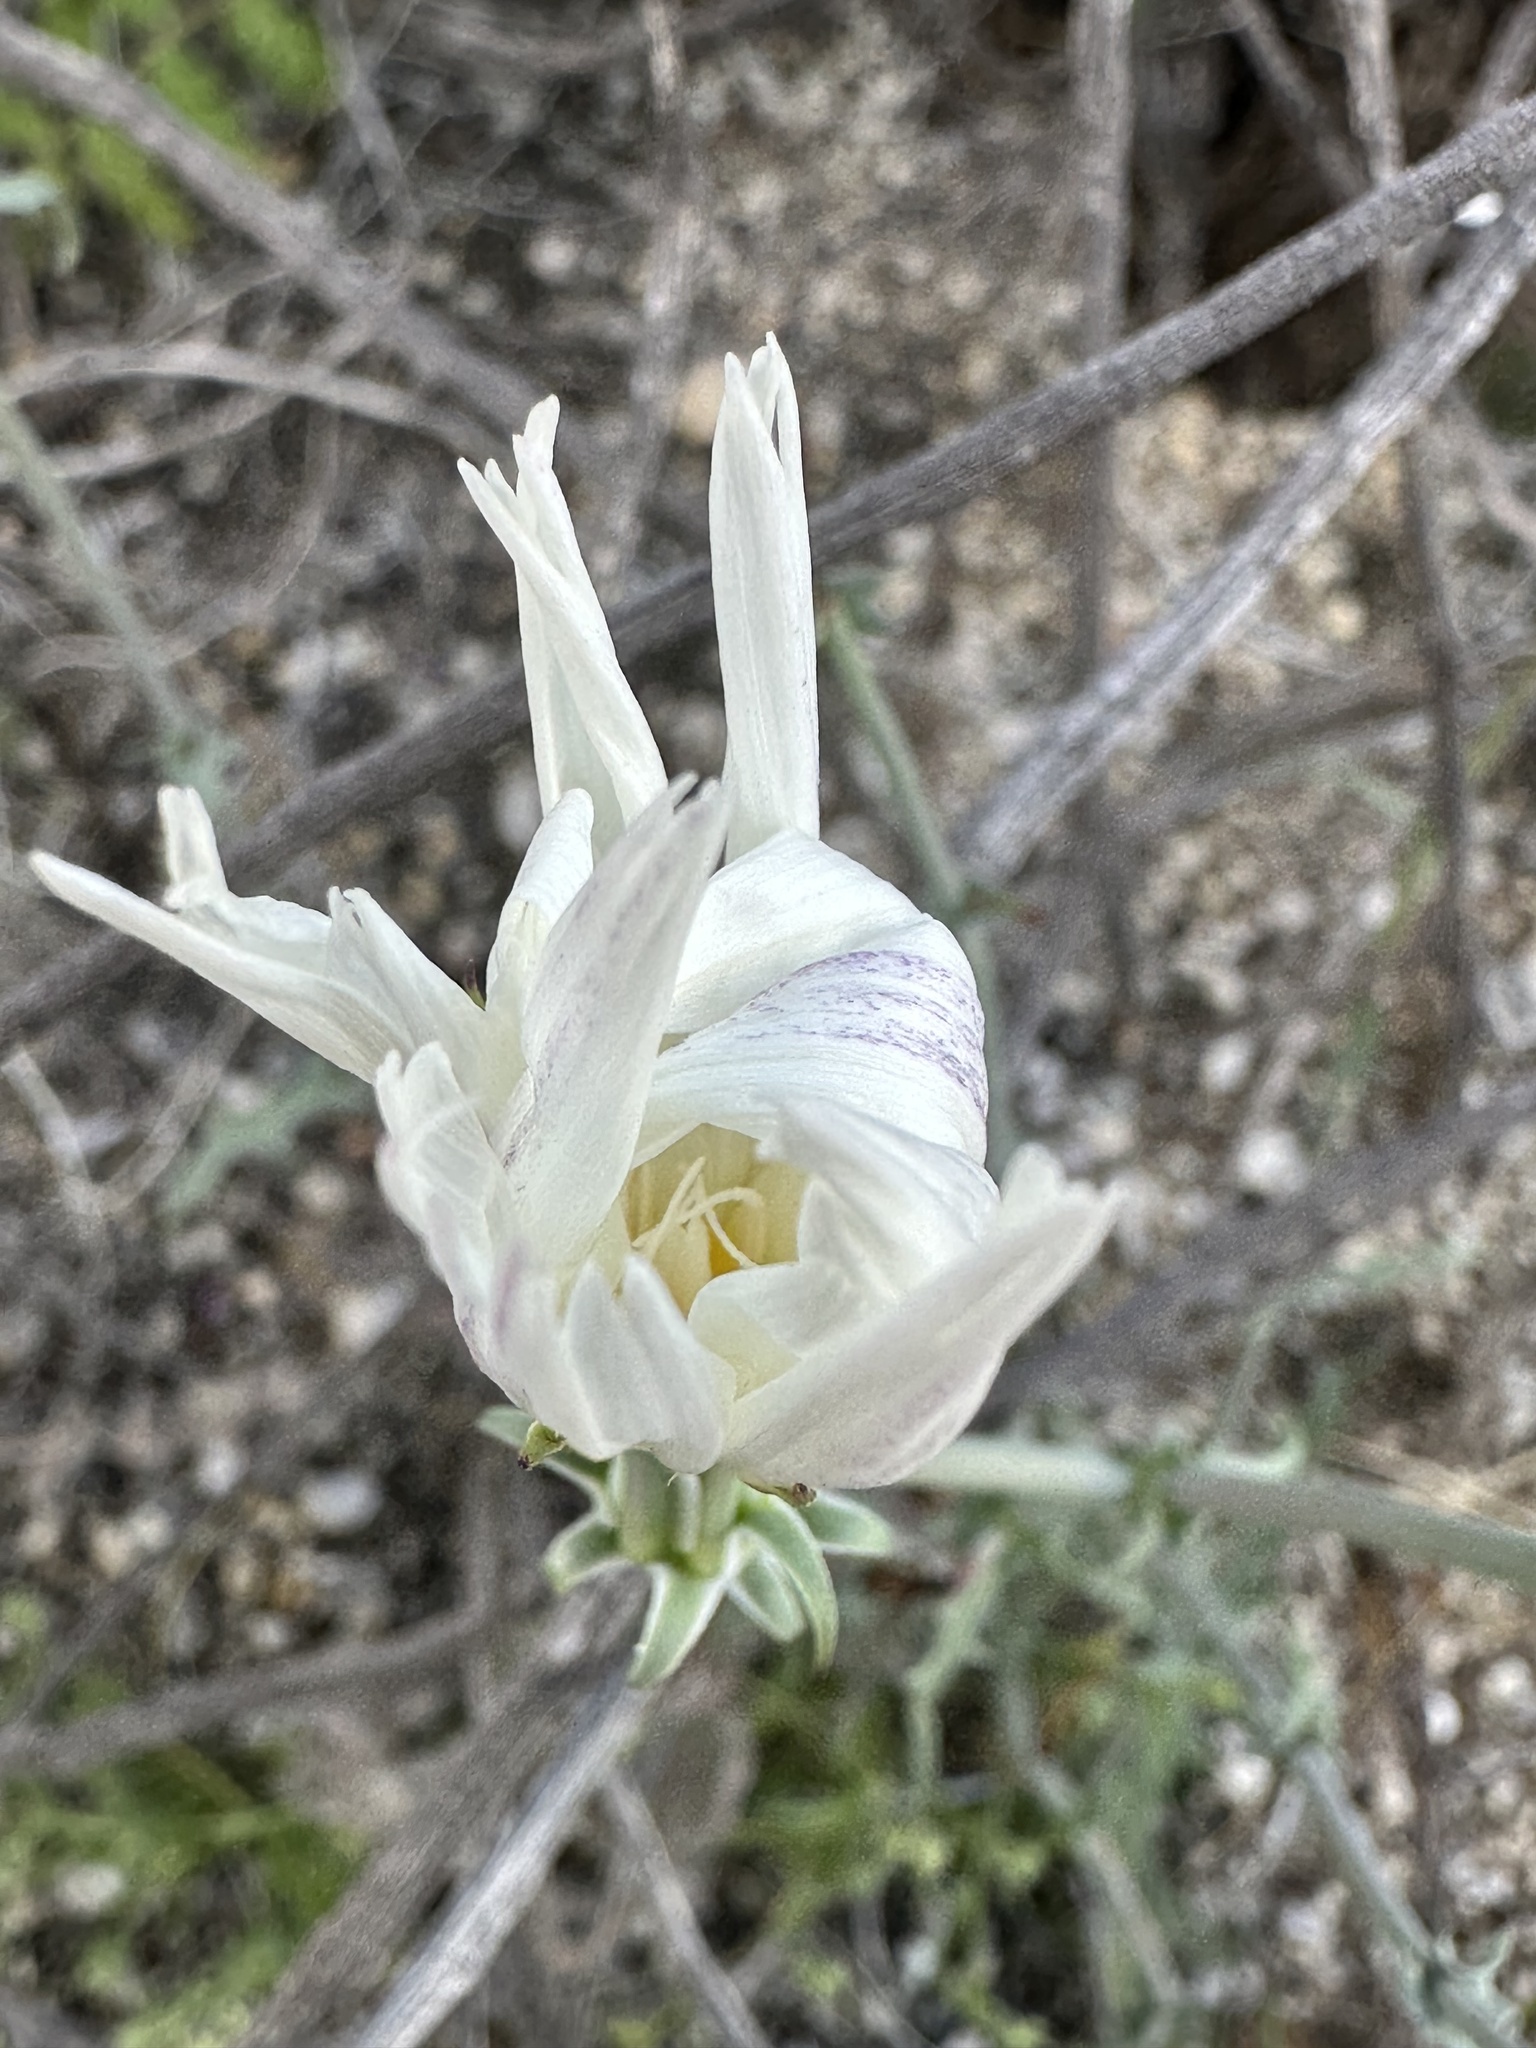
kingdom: Plantae
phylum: Tracheophyta
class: Magnoliopsida
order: Asterales
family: Asteraceae
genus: Rafinesquia
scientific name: Rafinesquia neomexicana
